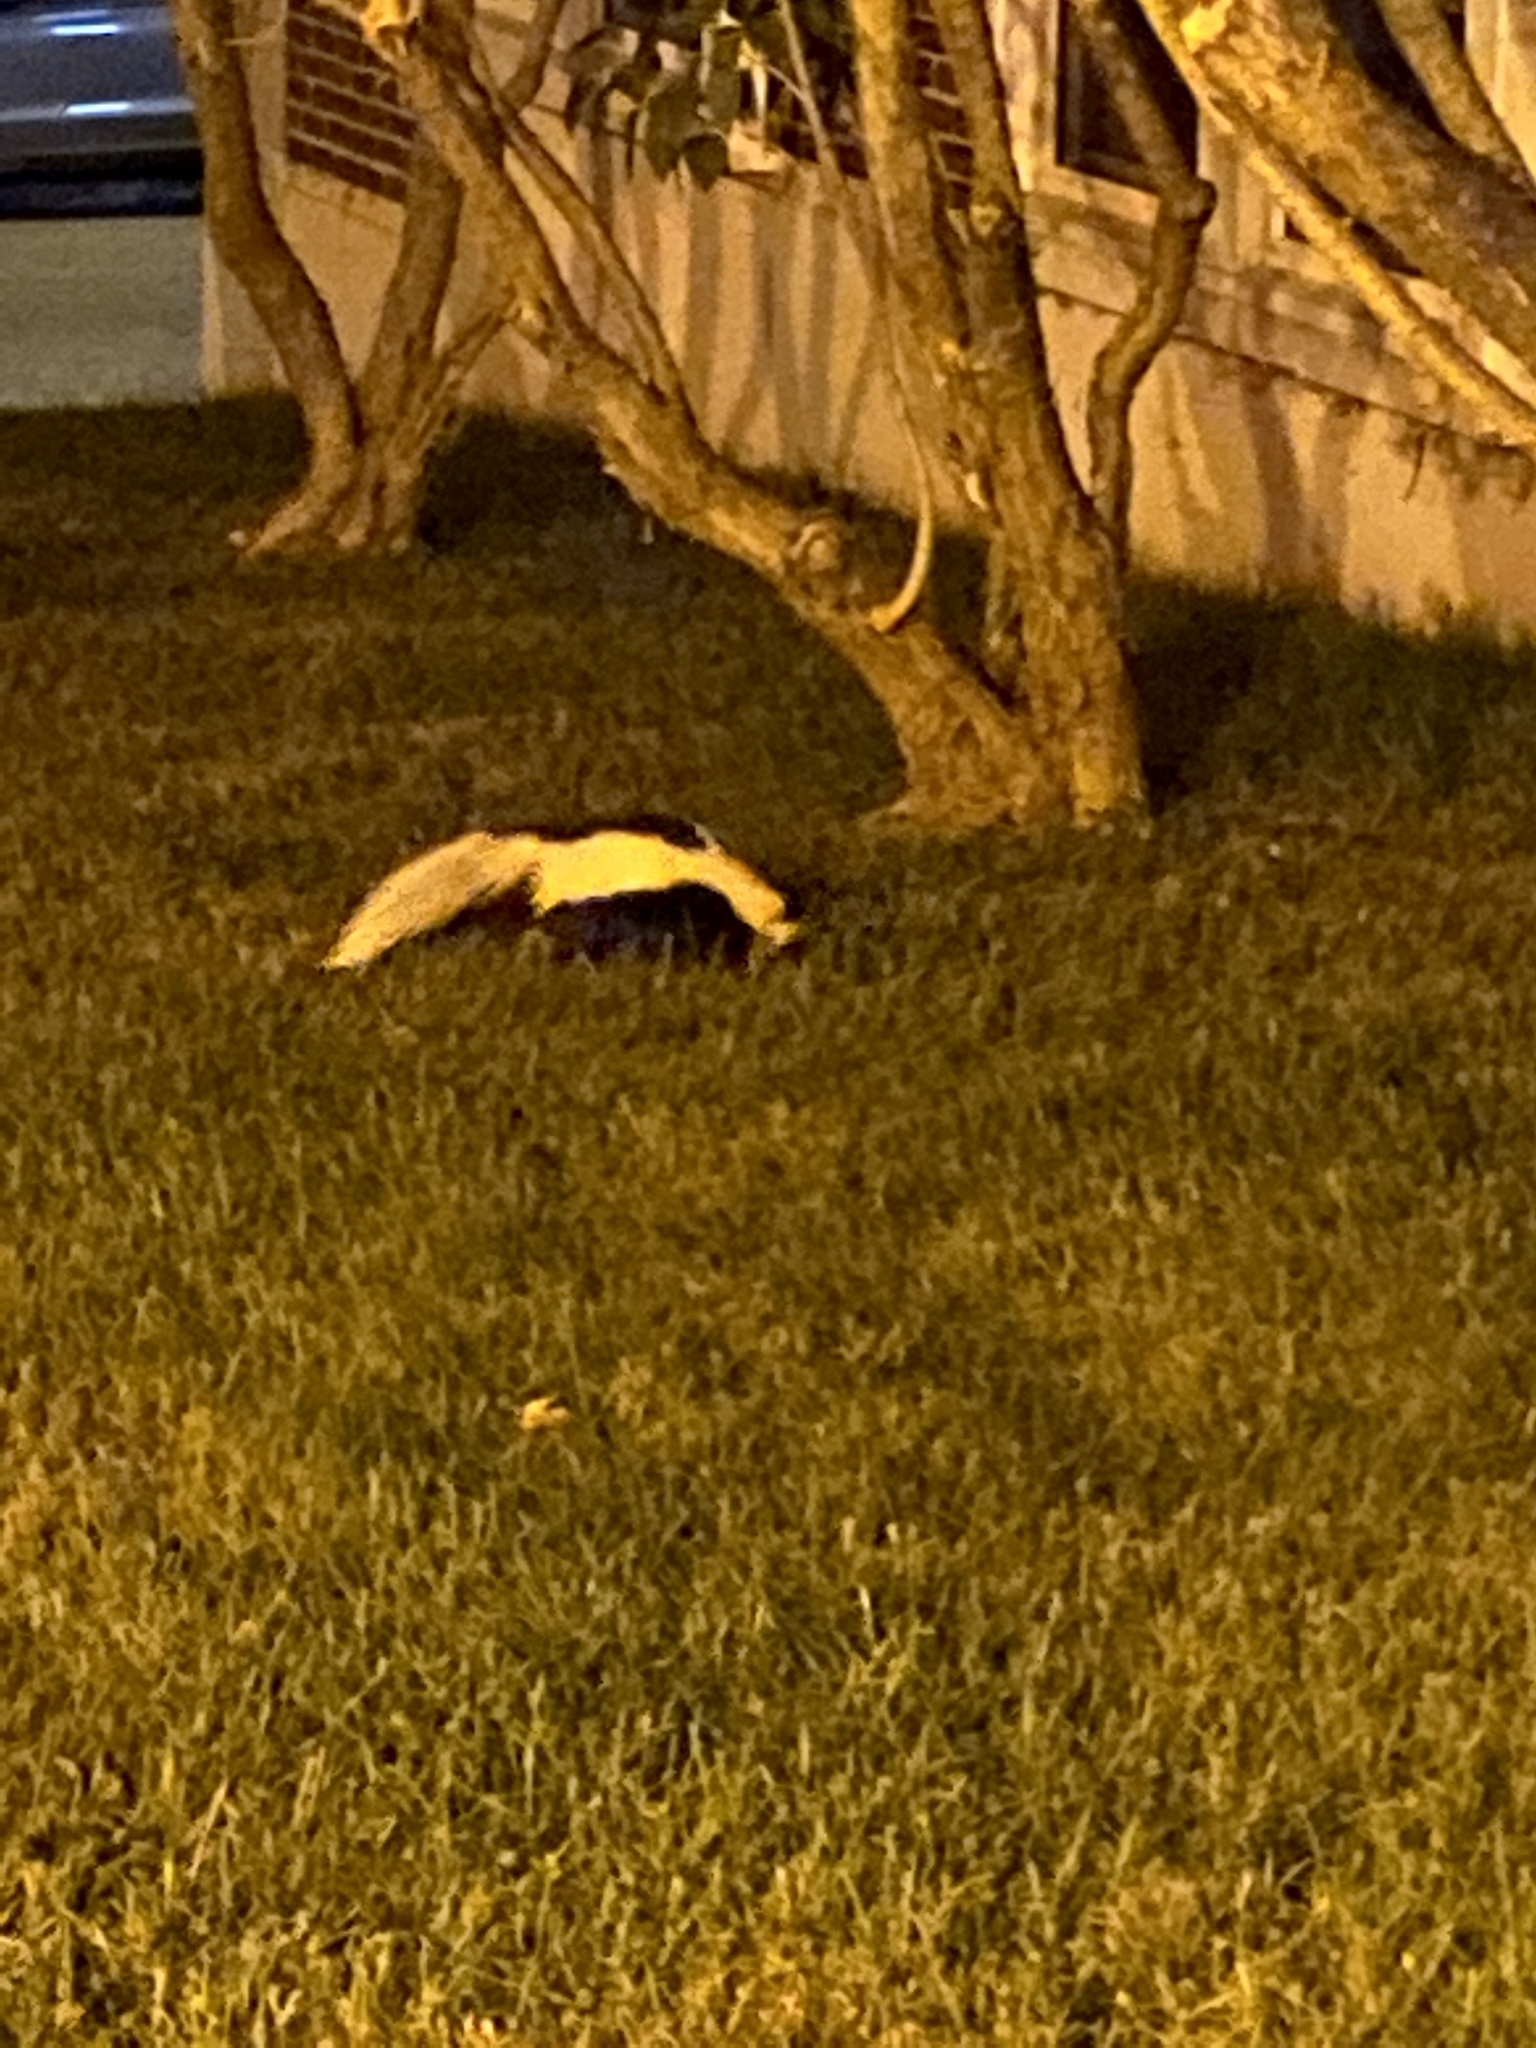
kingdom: Animalia
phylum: Chordata
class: Mammalia
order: Carnivora
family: Mephitidae
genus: Mephitis
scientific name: Mephitis mephitis
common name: Striped skunk
